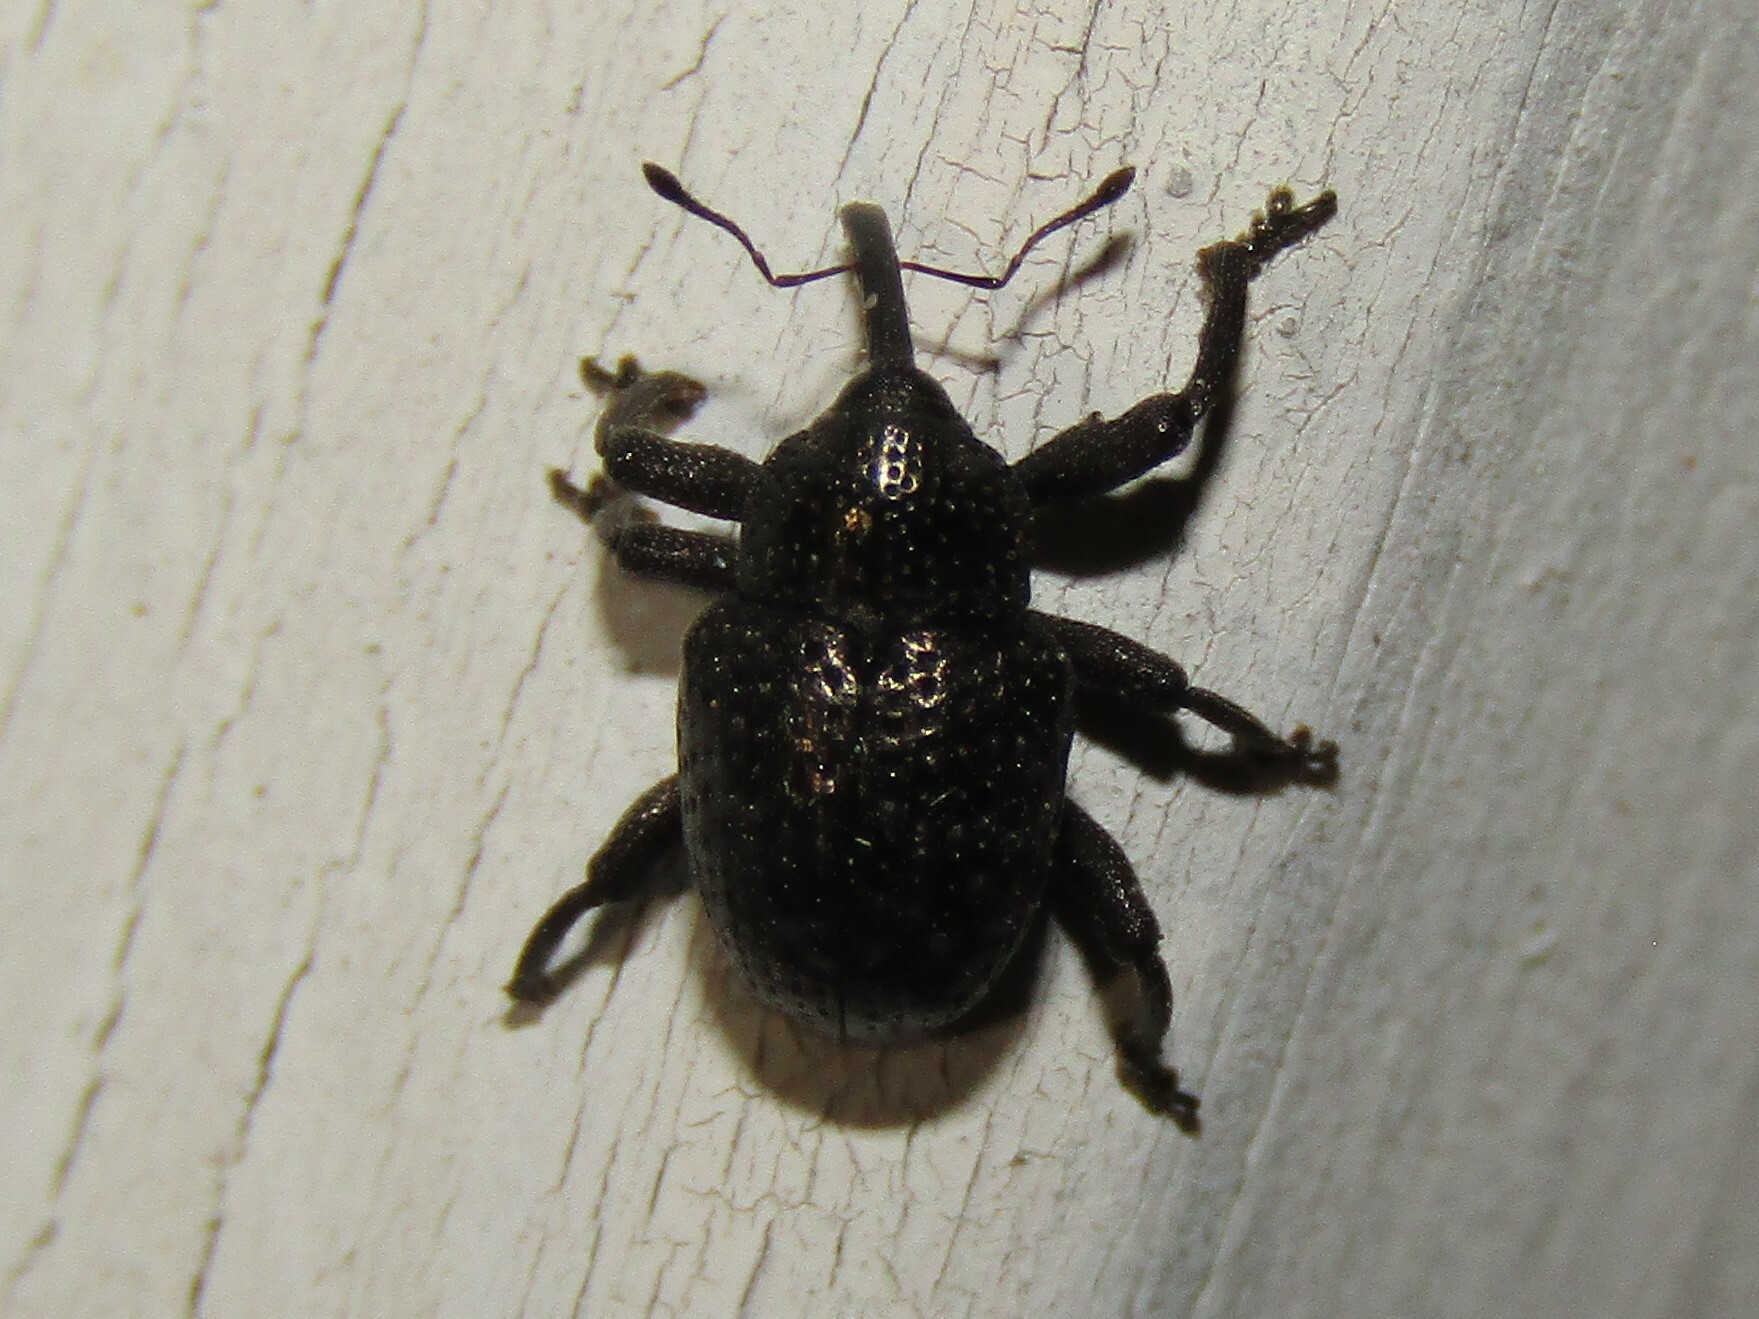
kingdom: Animalia
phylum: Arthropoda
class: Insecta
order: Coleoptera
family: Curculionidae
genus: Chalcodermus
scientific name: Chalcodermus aeneus
